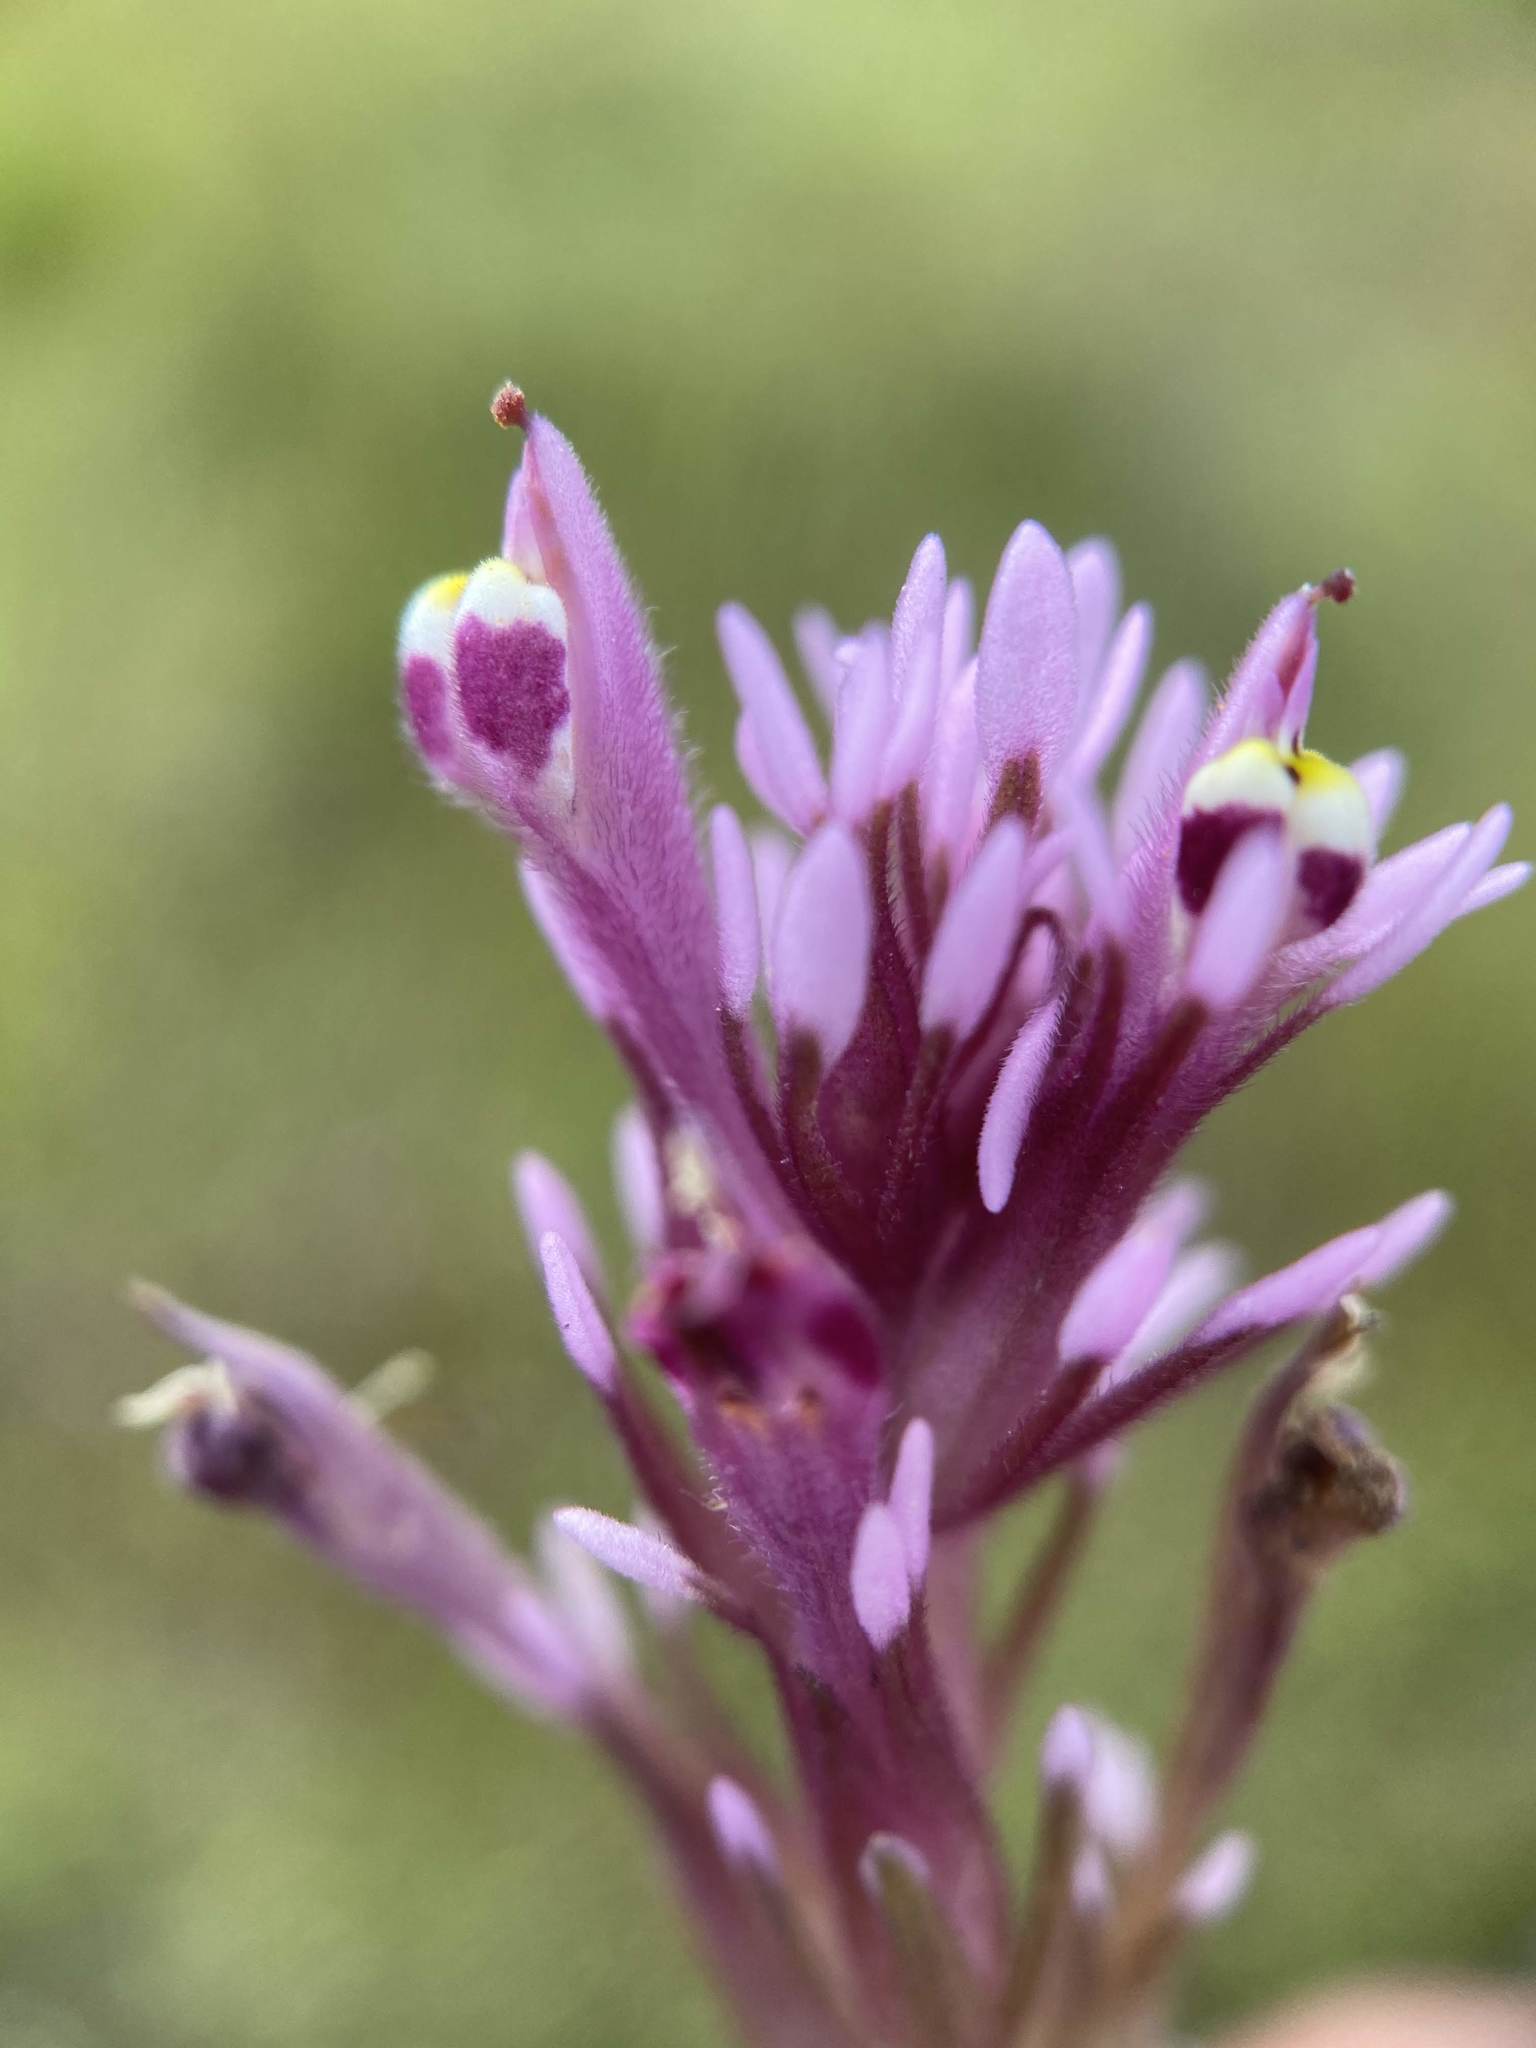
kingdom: Plantae
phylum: Tracheophyta
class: Magnoliopsida
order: Lamiales
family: Orobanchaceae
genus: Castilleja
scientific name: Castilleja densiflora
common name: Dense-flower indian paintbrush
